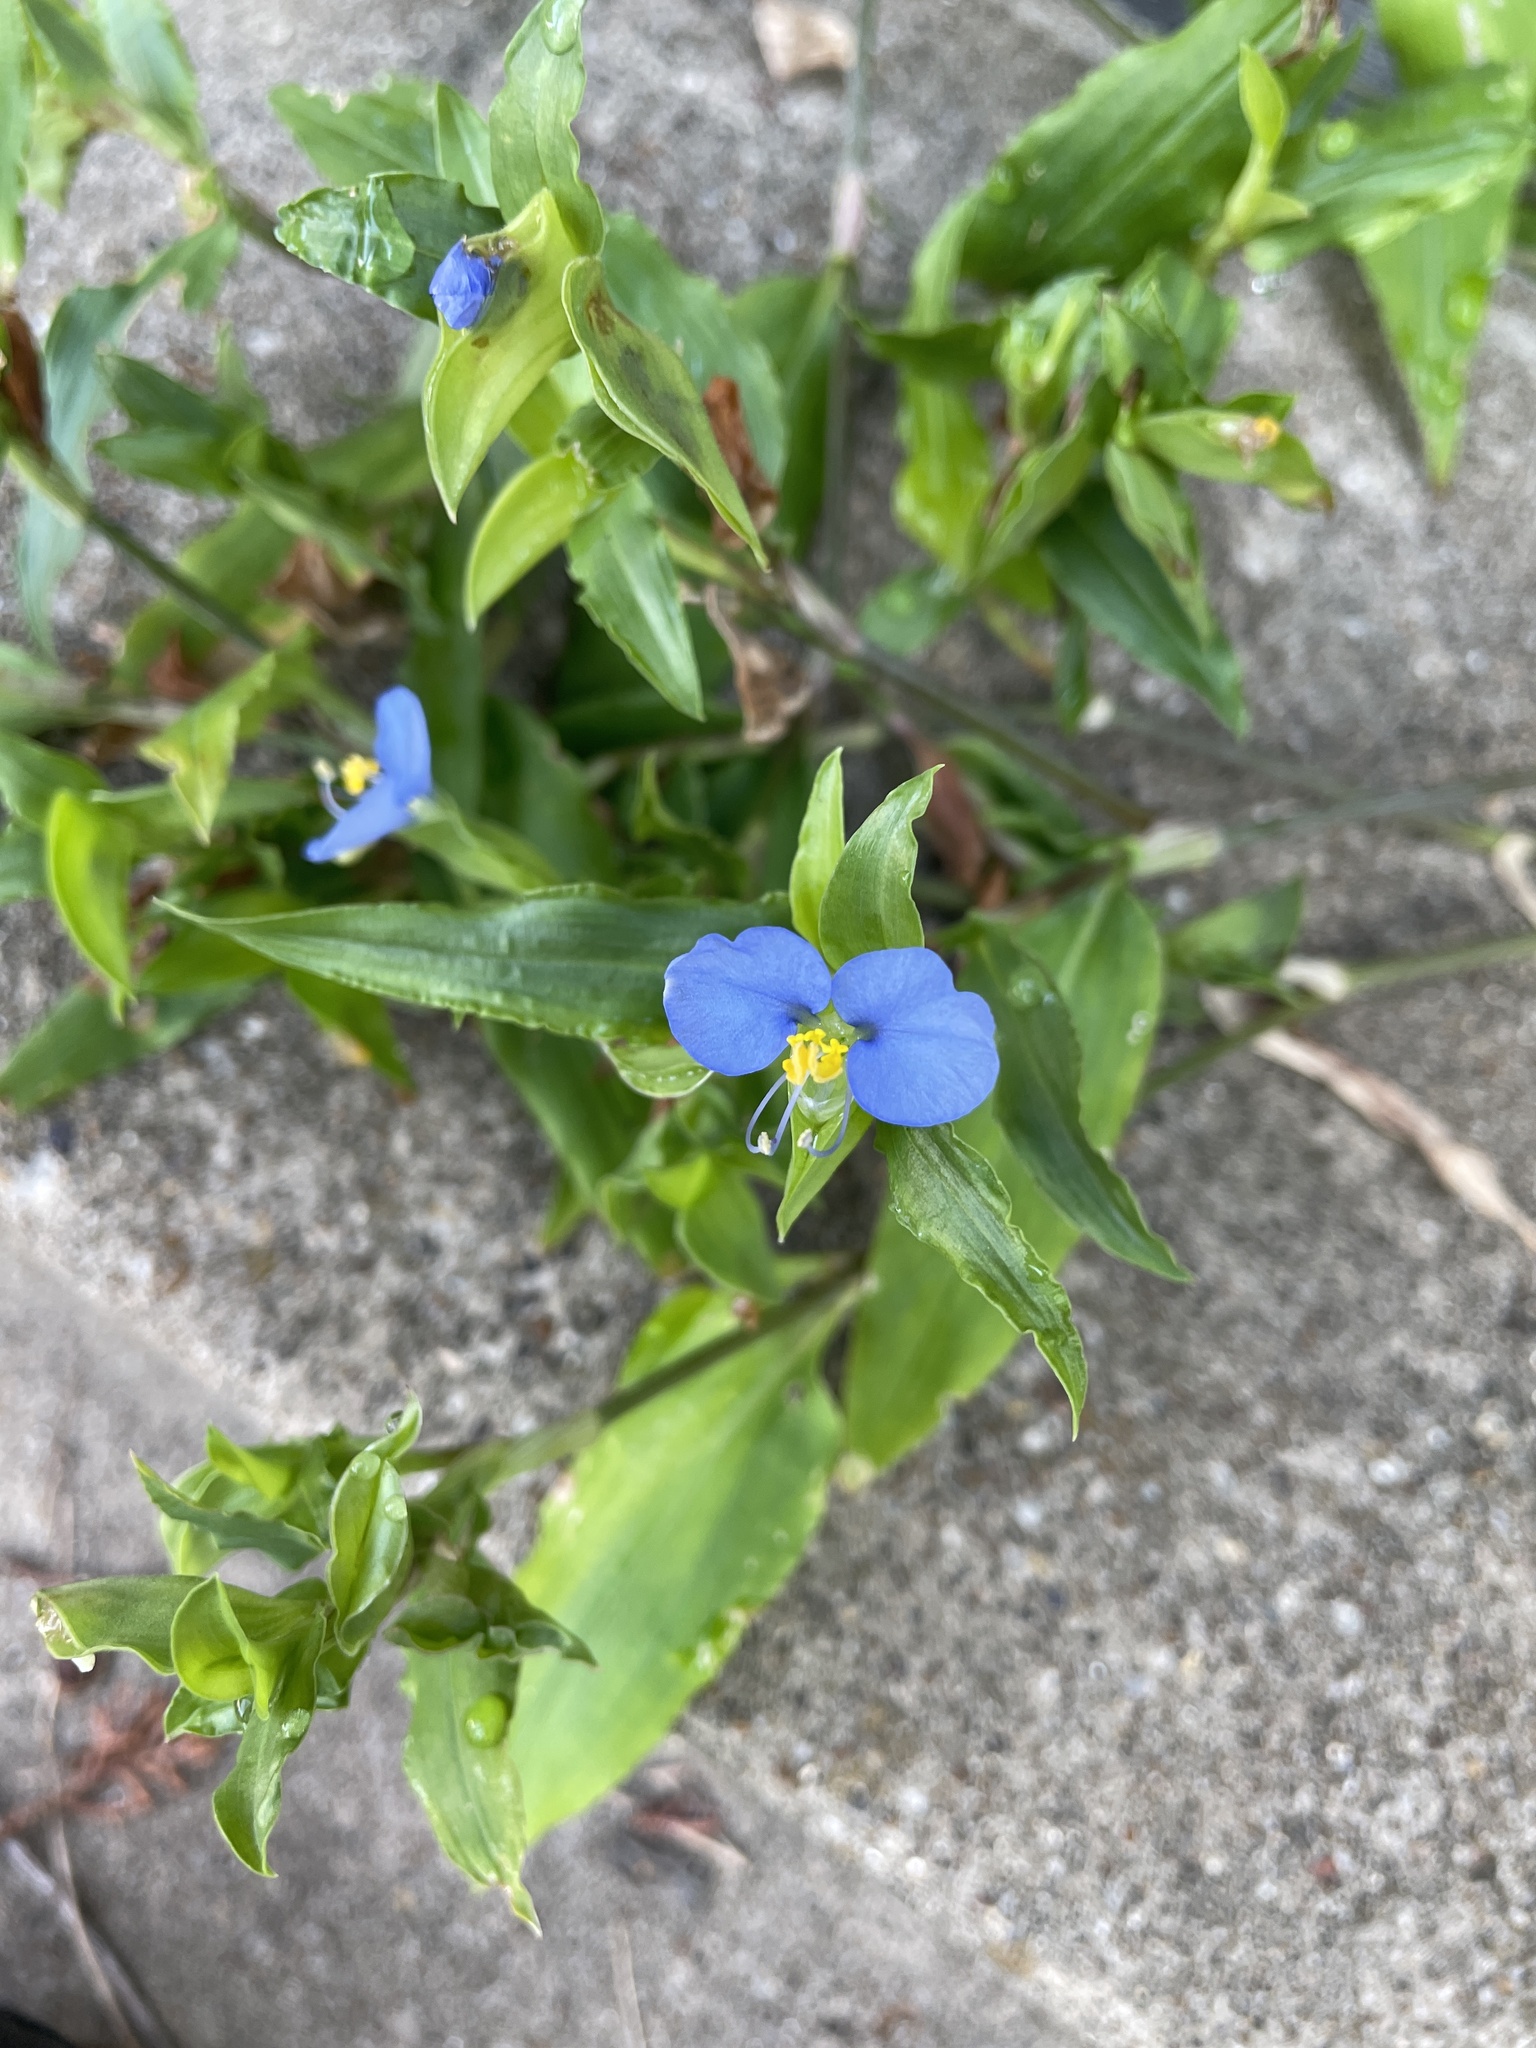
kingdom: Plantae
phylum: Tracheophyta
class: Liliopsida
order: Commelinales
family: Commelinaceae
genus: Commelina
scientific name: Commelina erecta
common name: Blousel blommetjie
